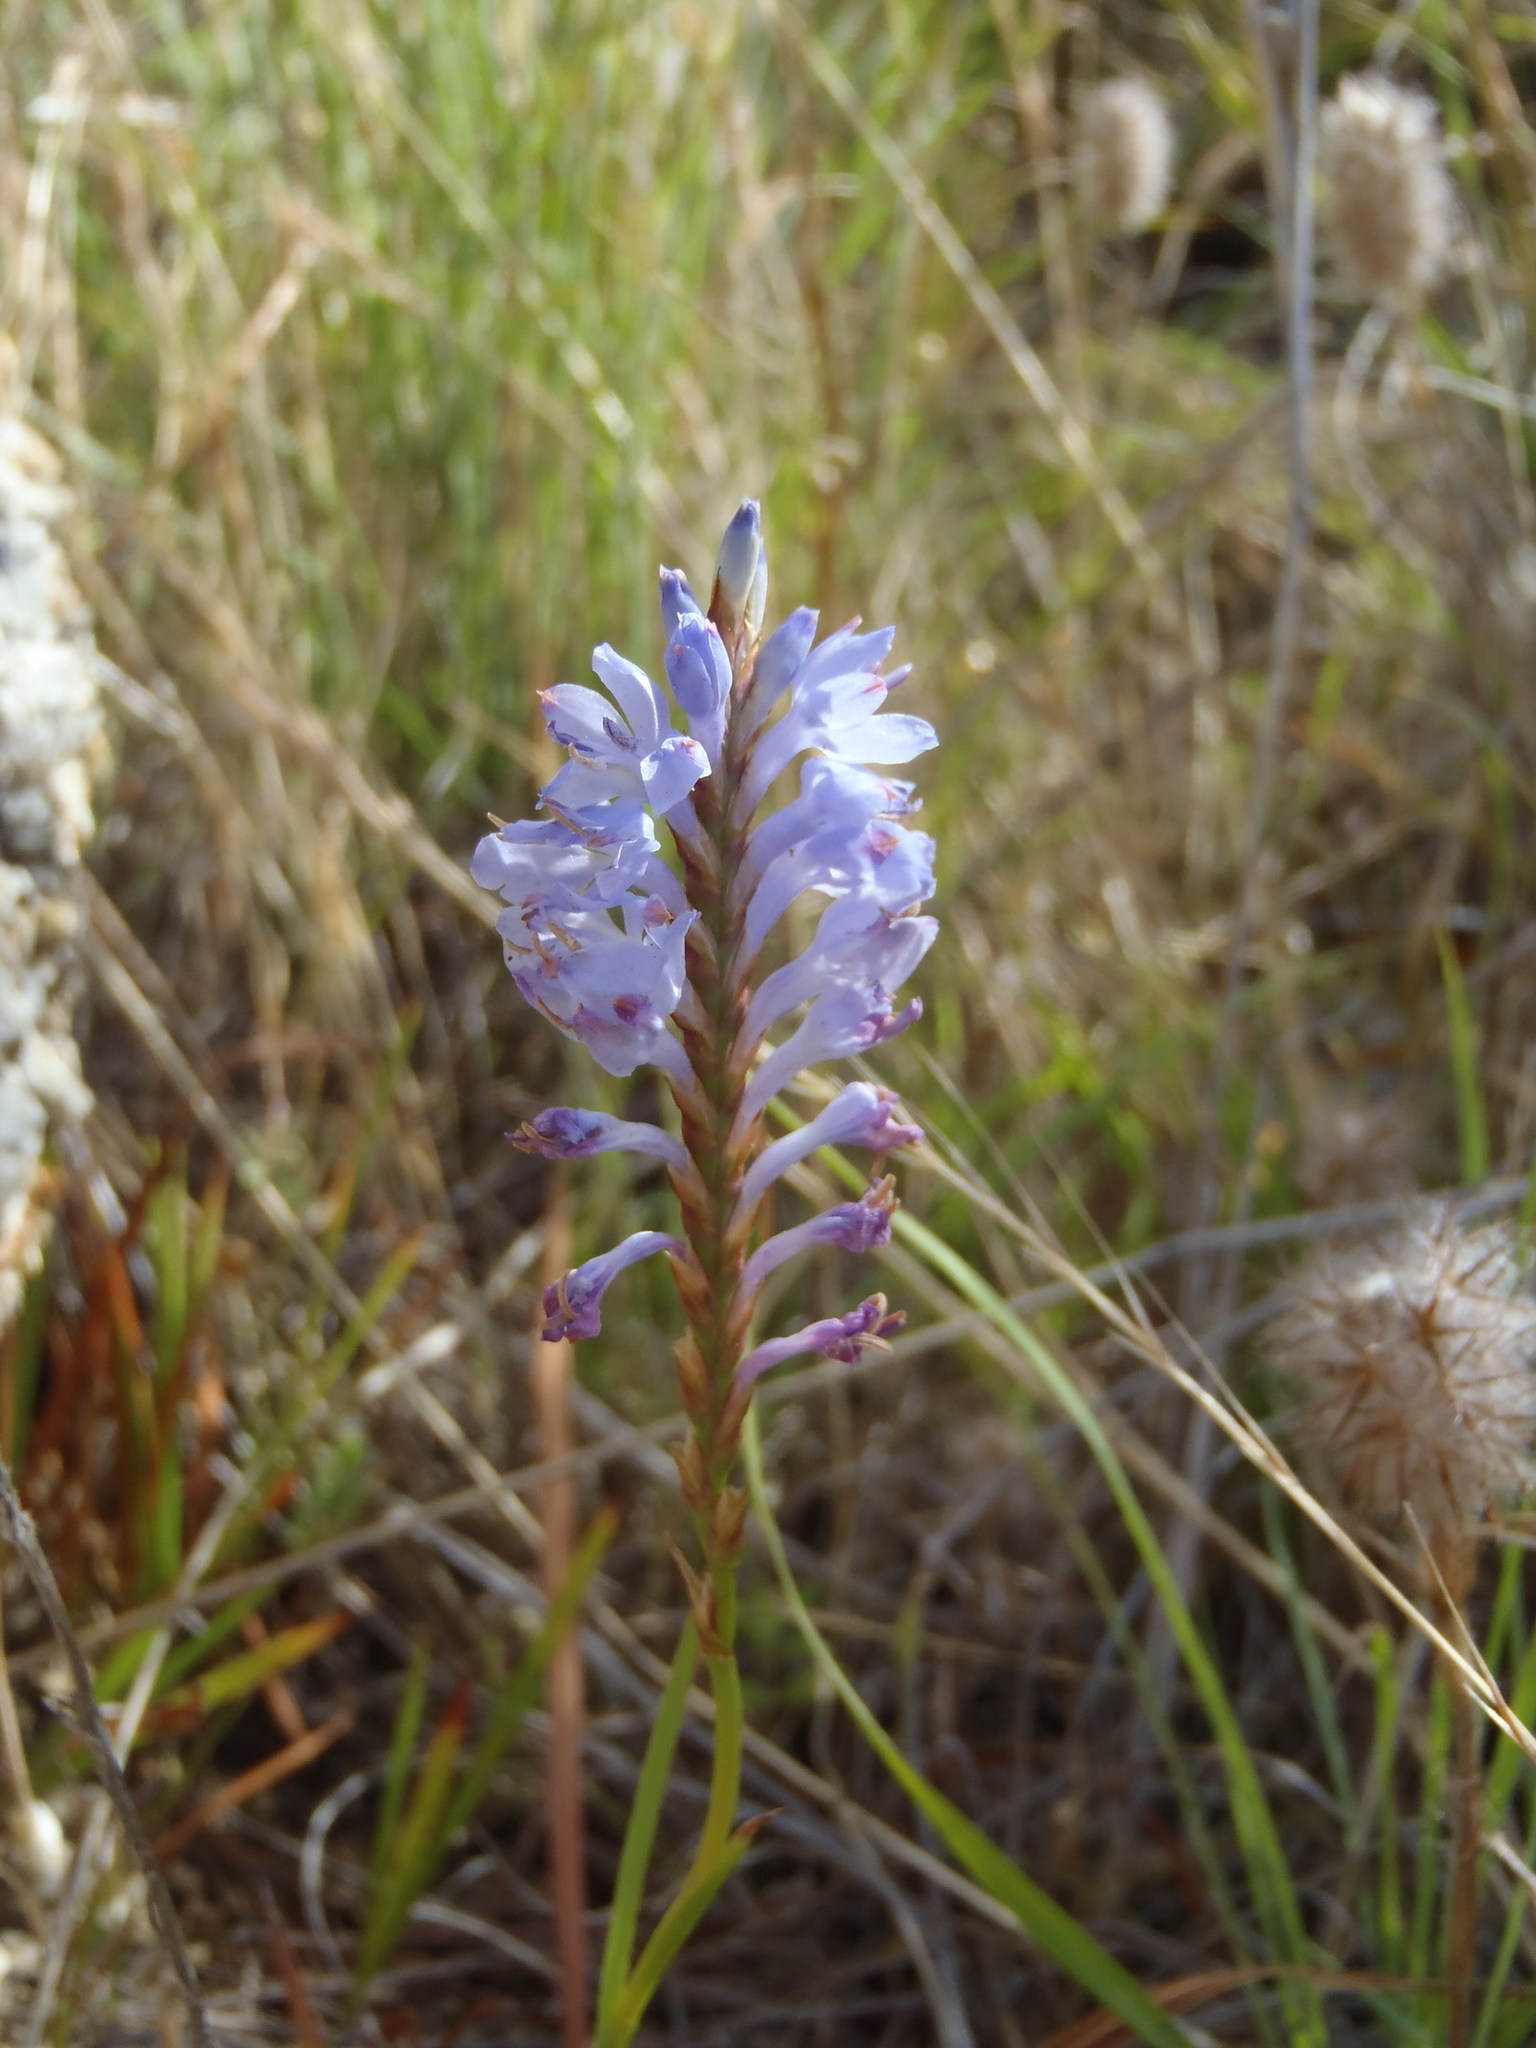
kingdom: Plantae
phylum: Tracheophyta
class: Liliopsida
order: Asparagales
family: Iridaceae
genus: Micranthus
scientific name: Micranthus alopecuroides
